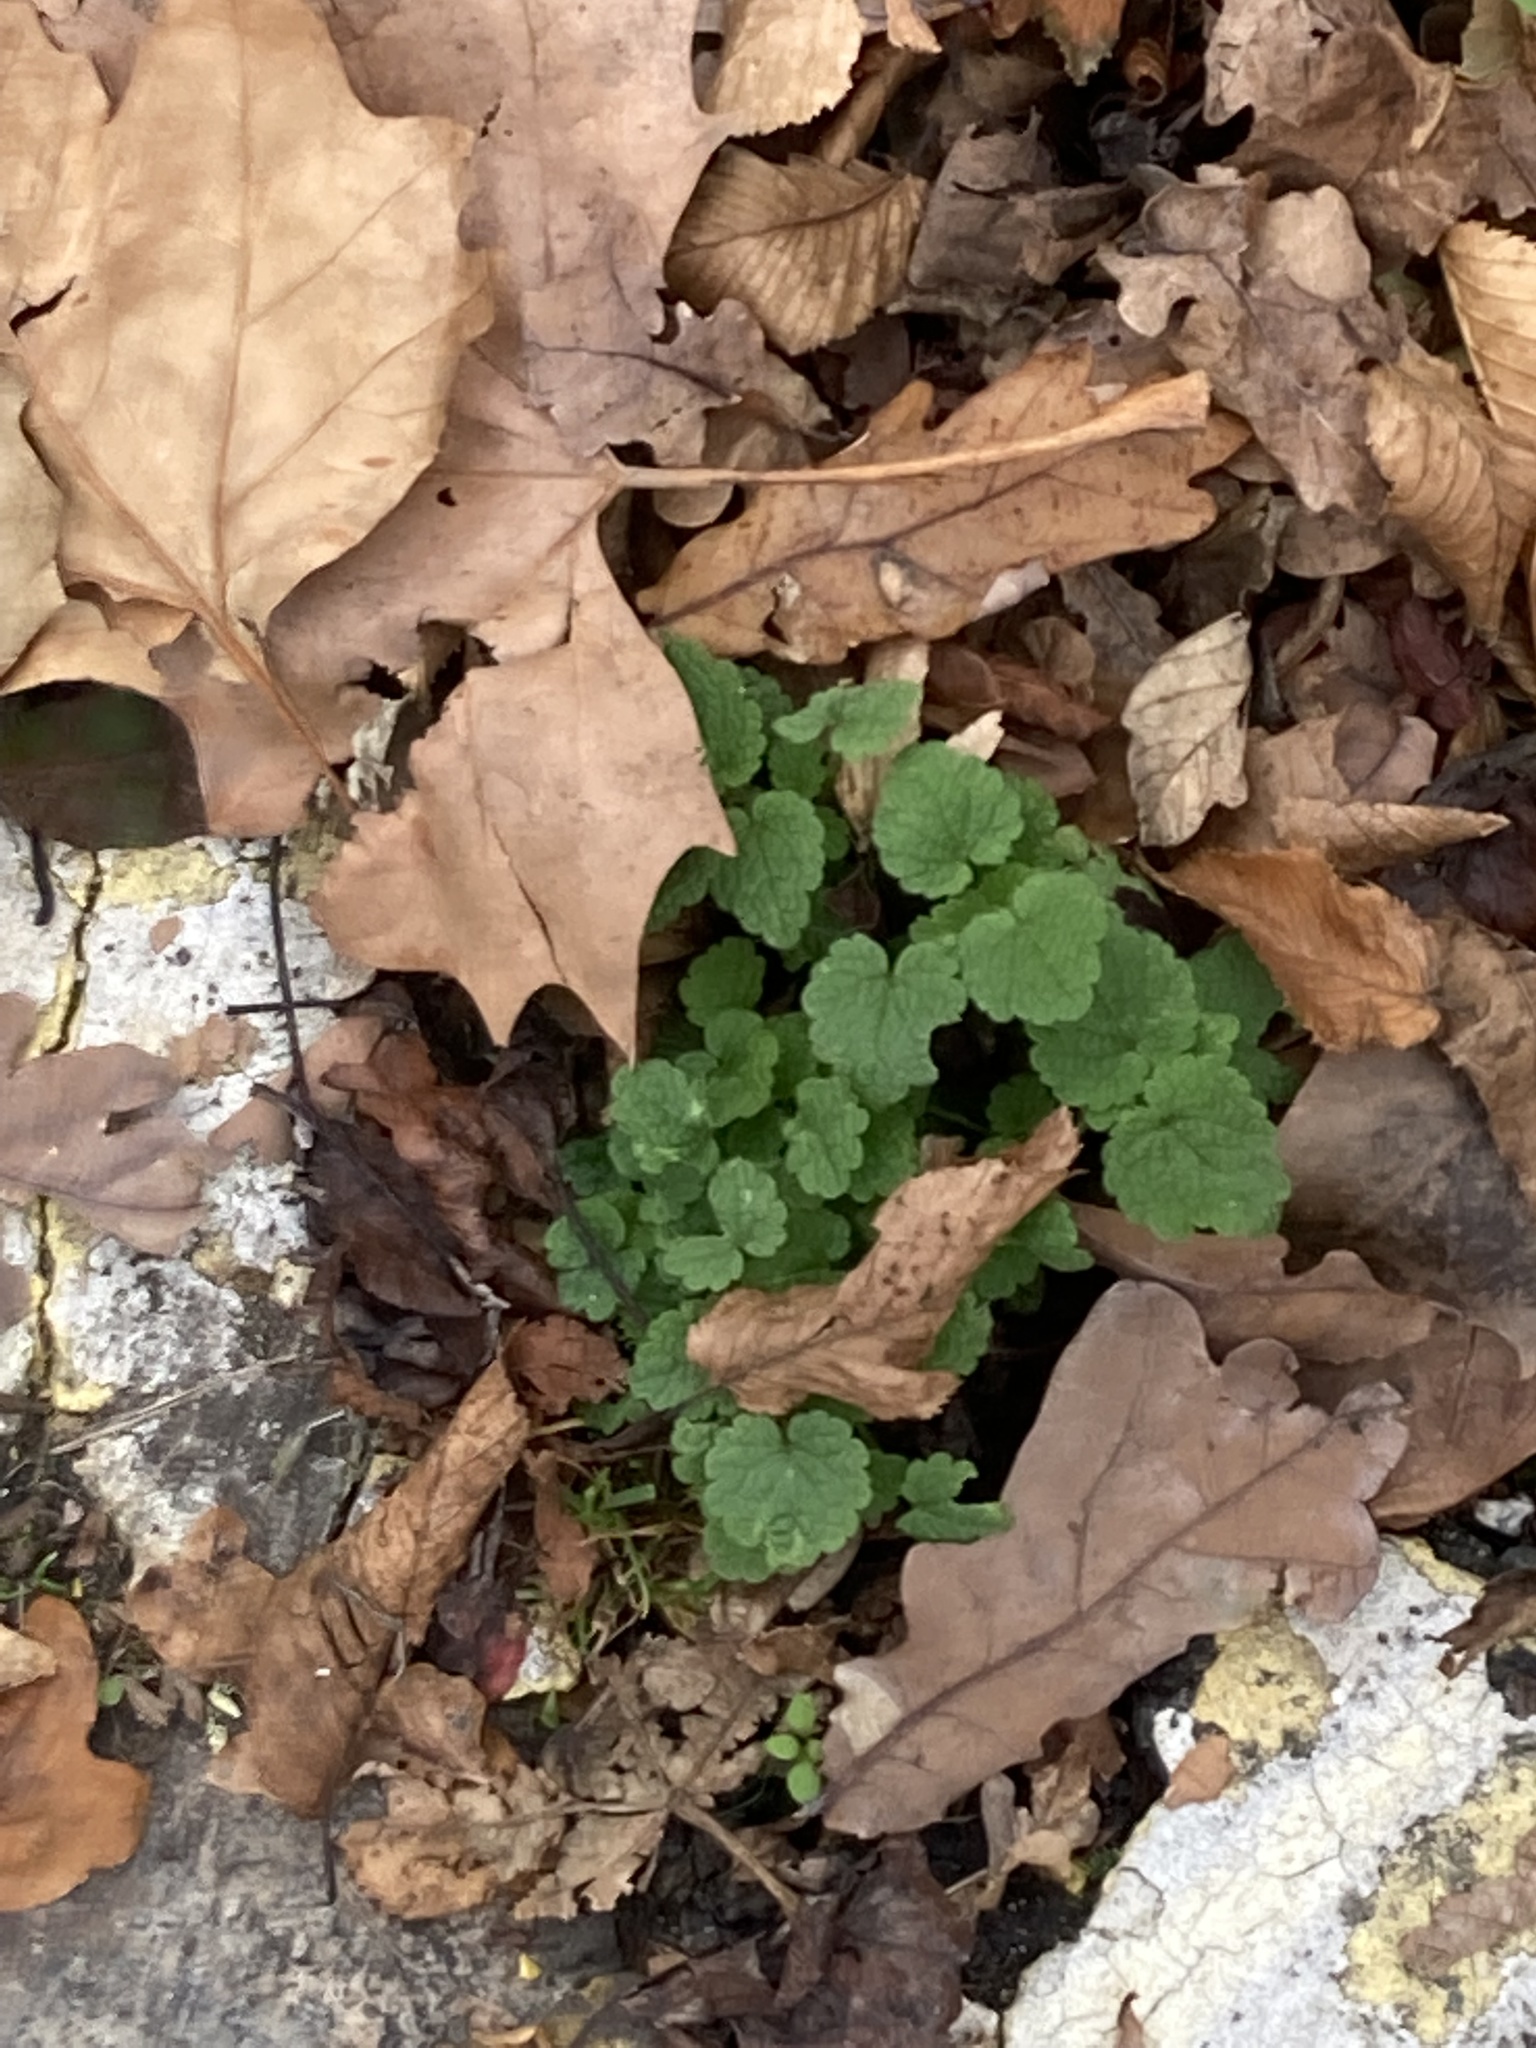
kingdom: Plantae
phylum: Tracheophyta
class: Magnoliopsida
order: Lamiales
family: Lamiaceae
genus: Glechoma
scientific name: Glechoma hederacea
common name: Ground ivy
